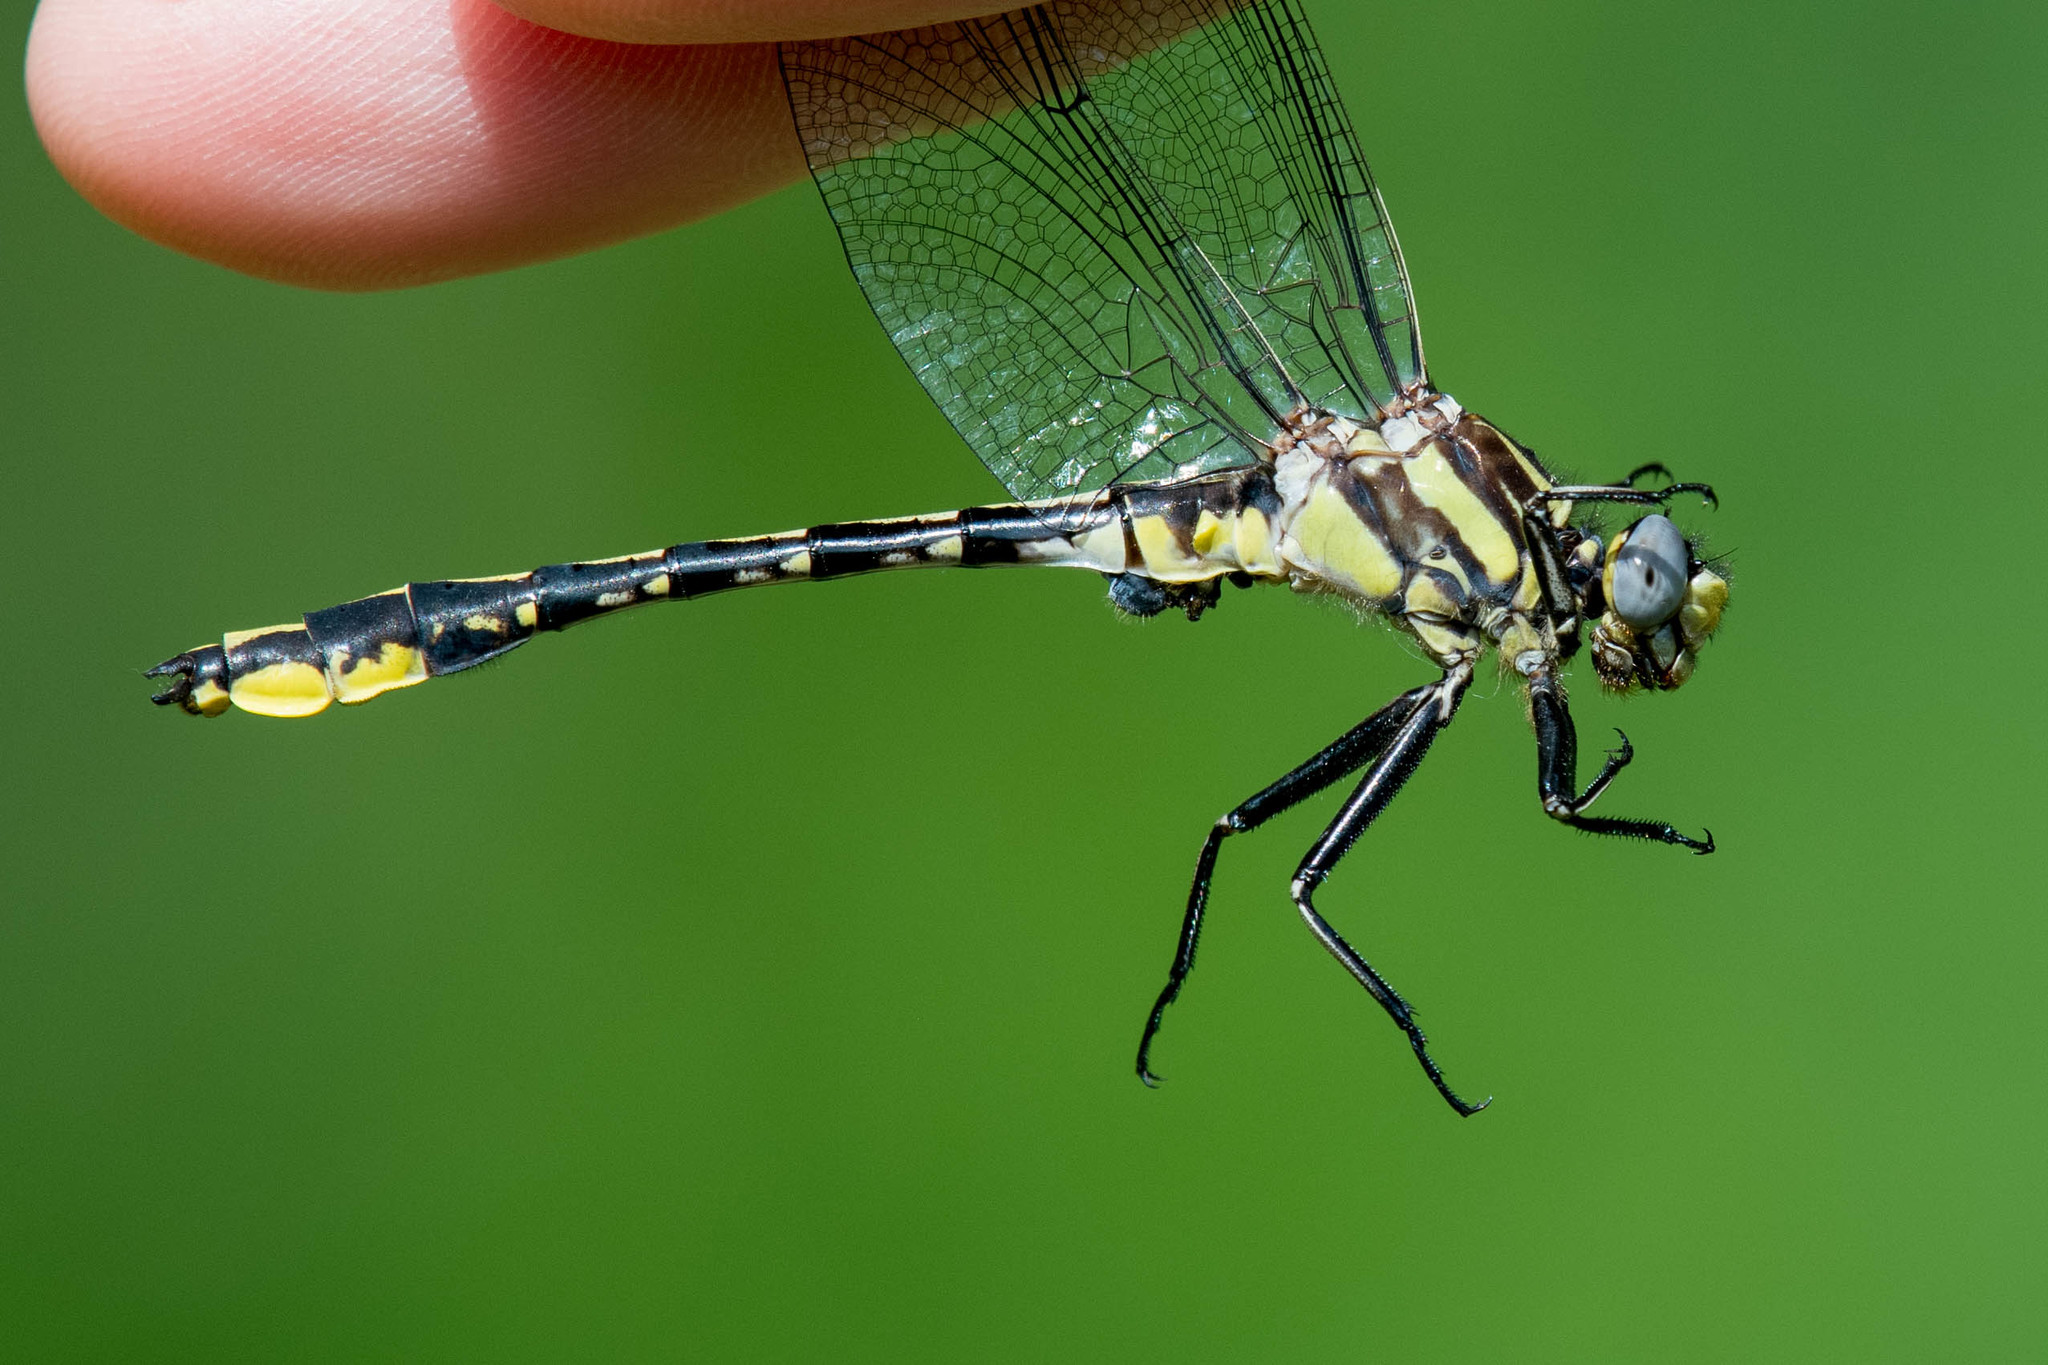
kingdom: Animalia
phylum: Arthropoda
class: Insecta
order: Odonata
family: Gomphidae
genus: Phanogomphus
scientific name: Phanogomphus graslinellus
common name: Pronghorn clubtail
